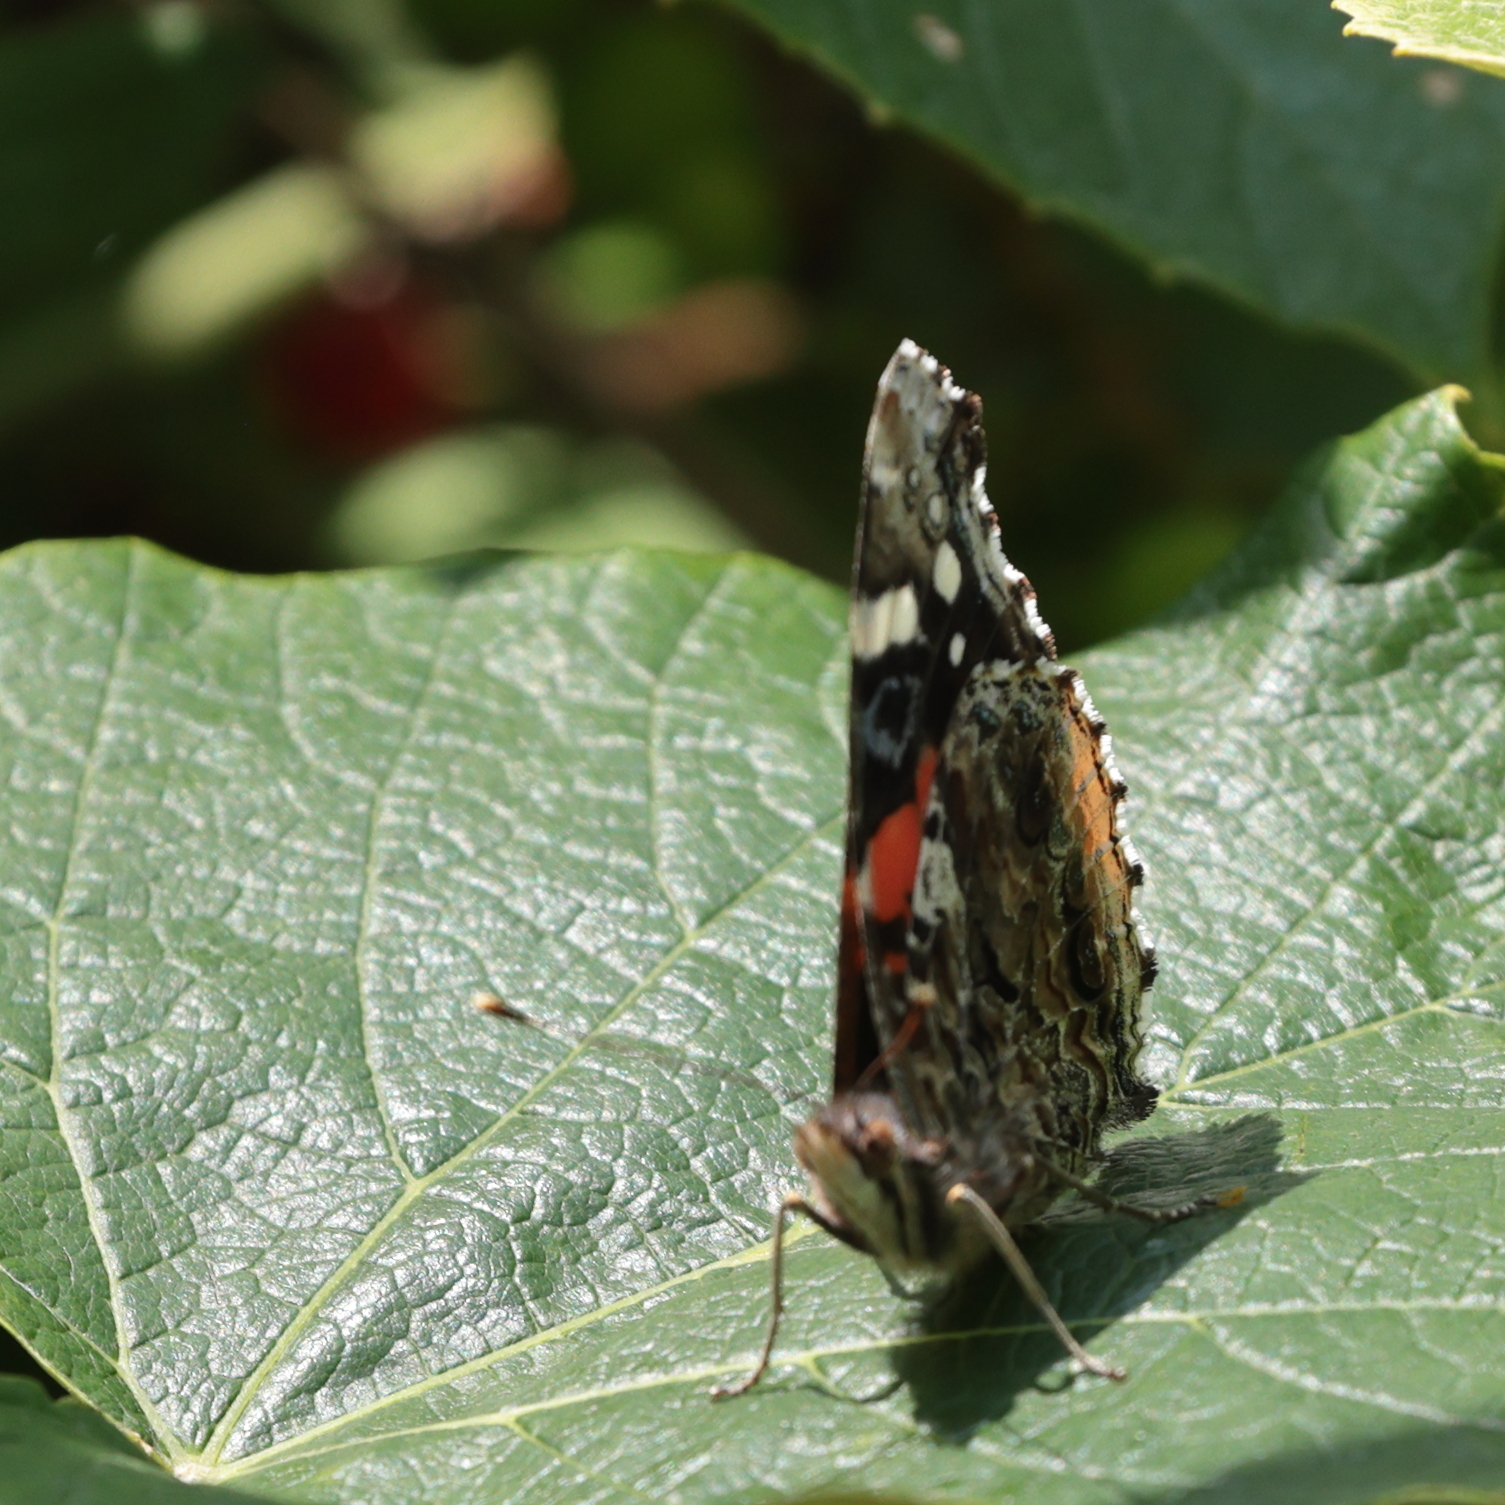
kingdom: Animalia
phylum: Arthropoda
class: Insecta
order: Lepidoptera
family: Nymphalidae
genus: Vanessa
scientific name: Vanessa atalanta
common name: Red admiral
